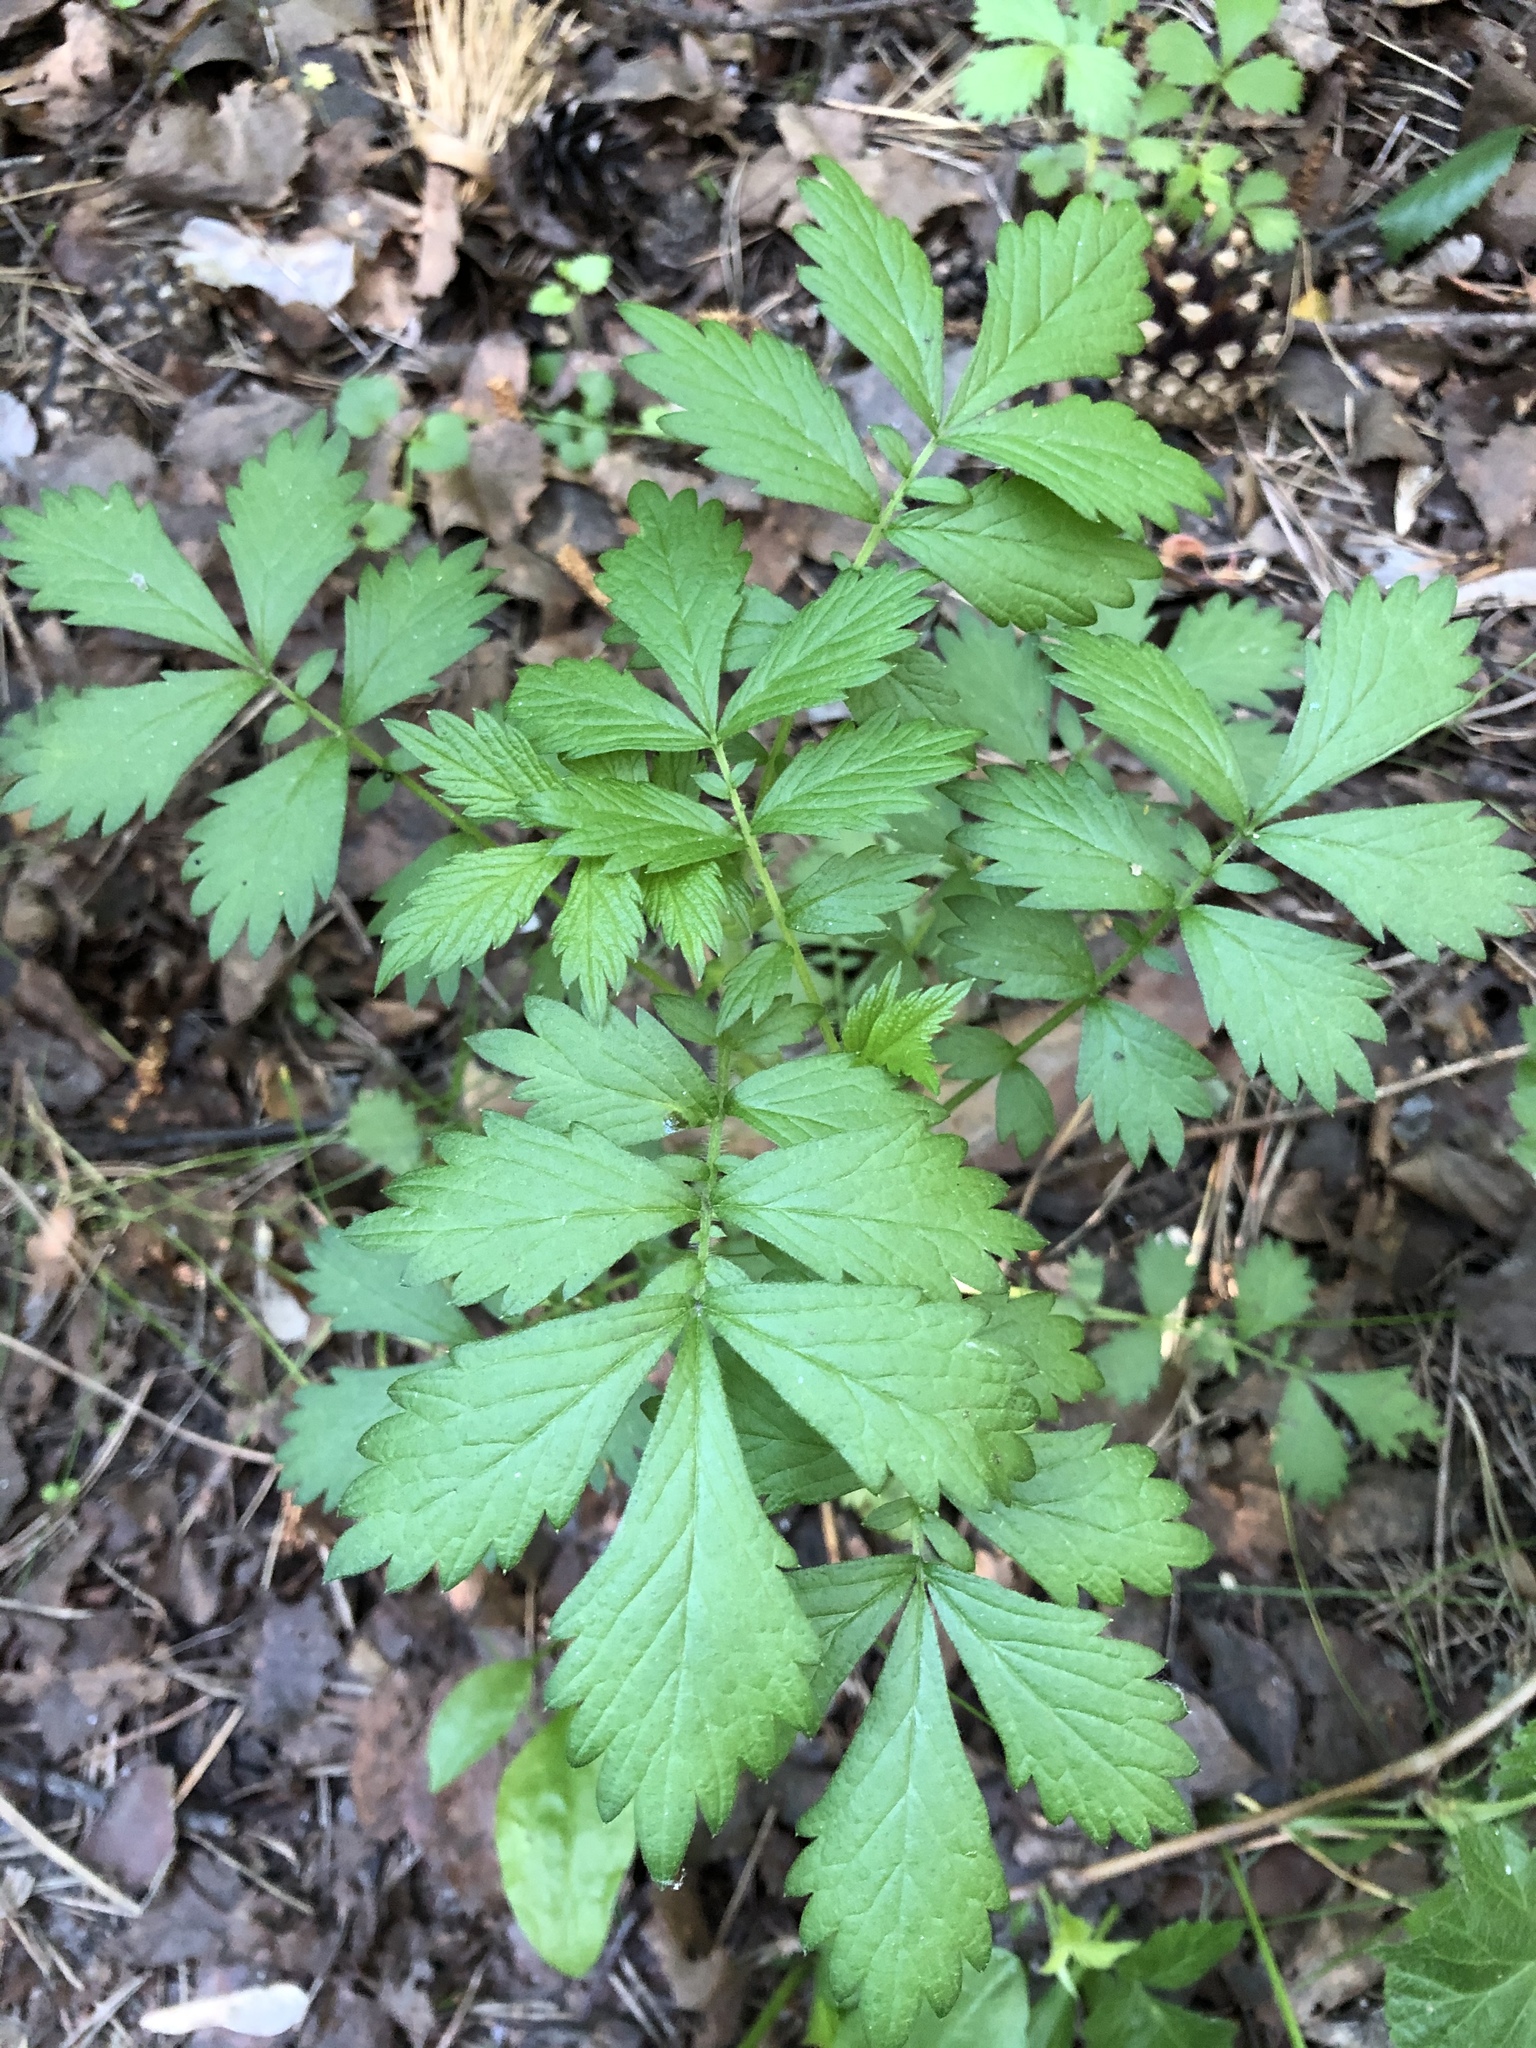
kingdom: Plantae
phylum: Tracheophyta
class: Magnoliopsida
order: Rosales
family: Rosaceae
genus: Agrimonia
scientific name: Agrimonia pilosa
